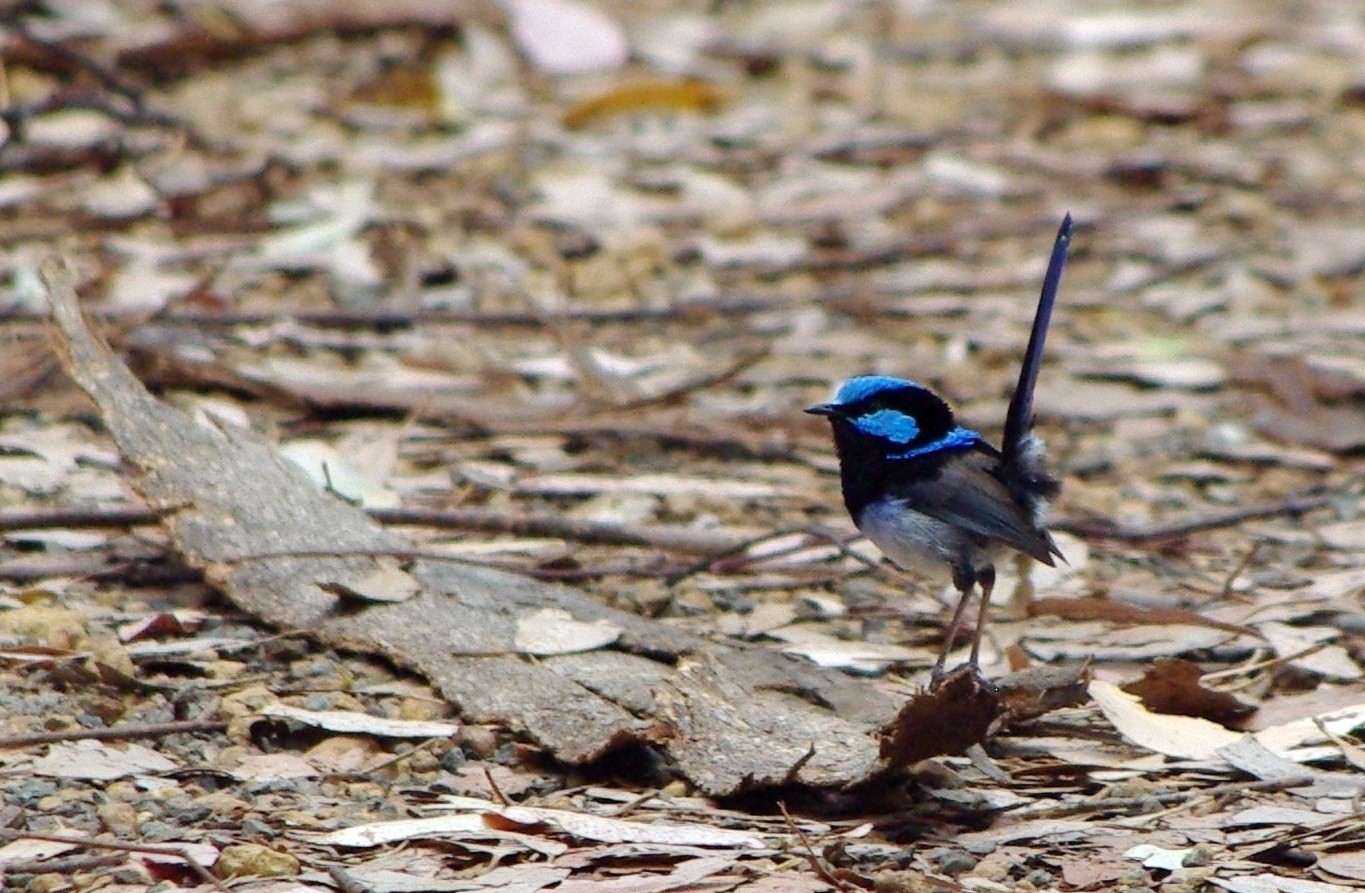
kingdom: Animalia
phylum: Chordata
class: Aves
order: Passeriformes
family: Maluridae
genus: Malurus
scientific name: Malurus cyaneus
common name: Superb fairywren
